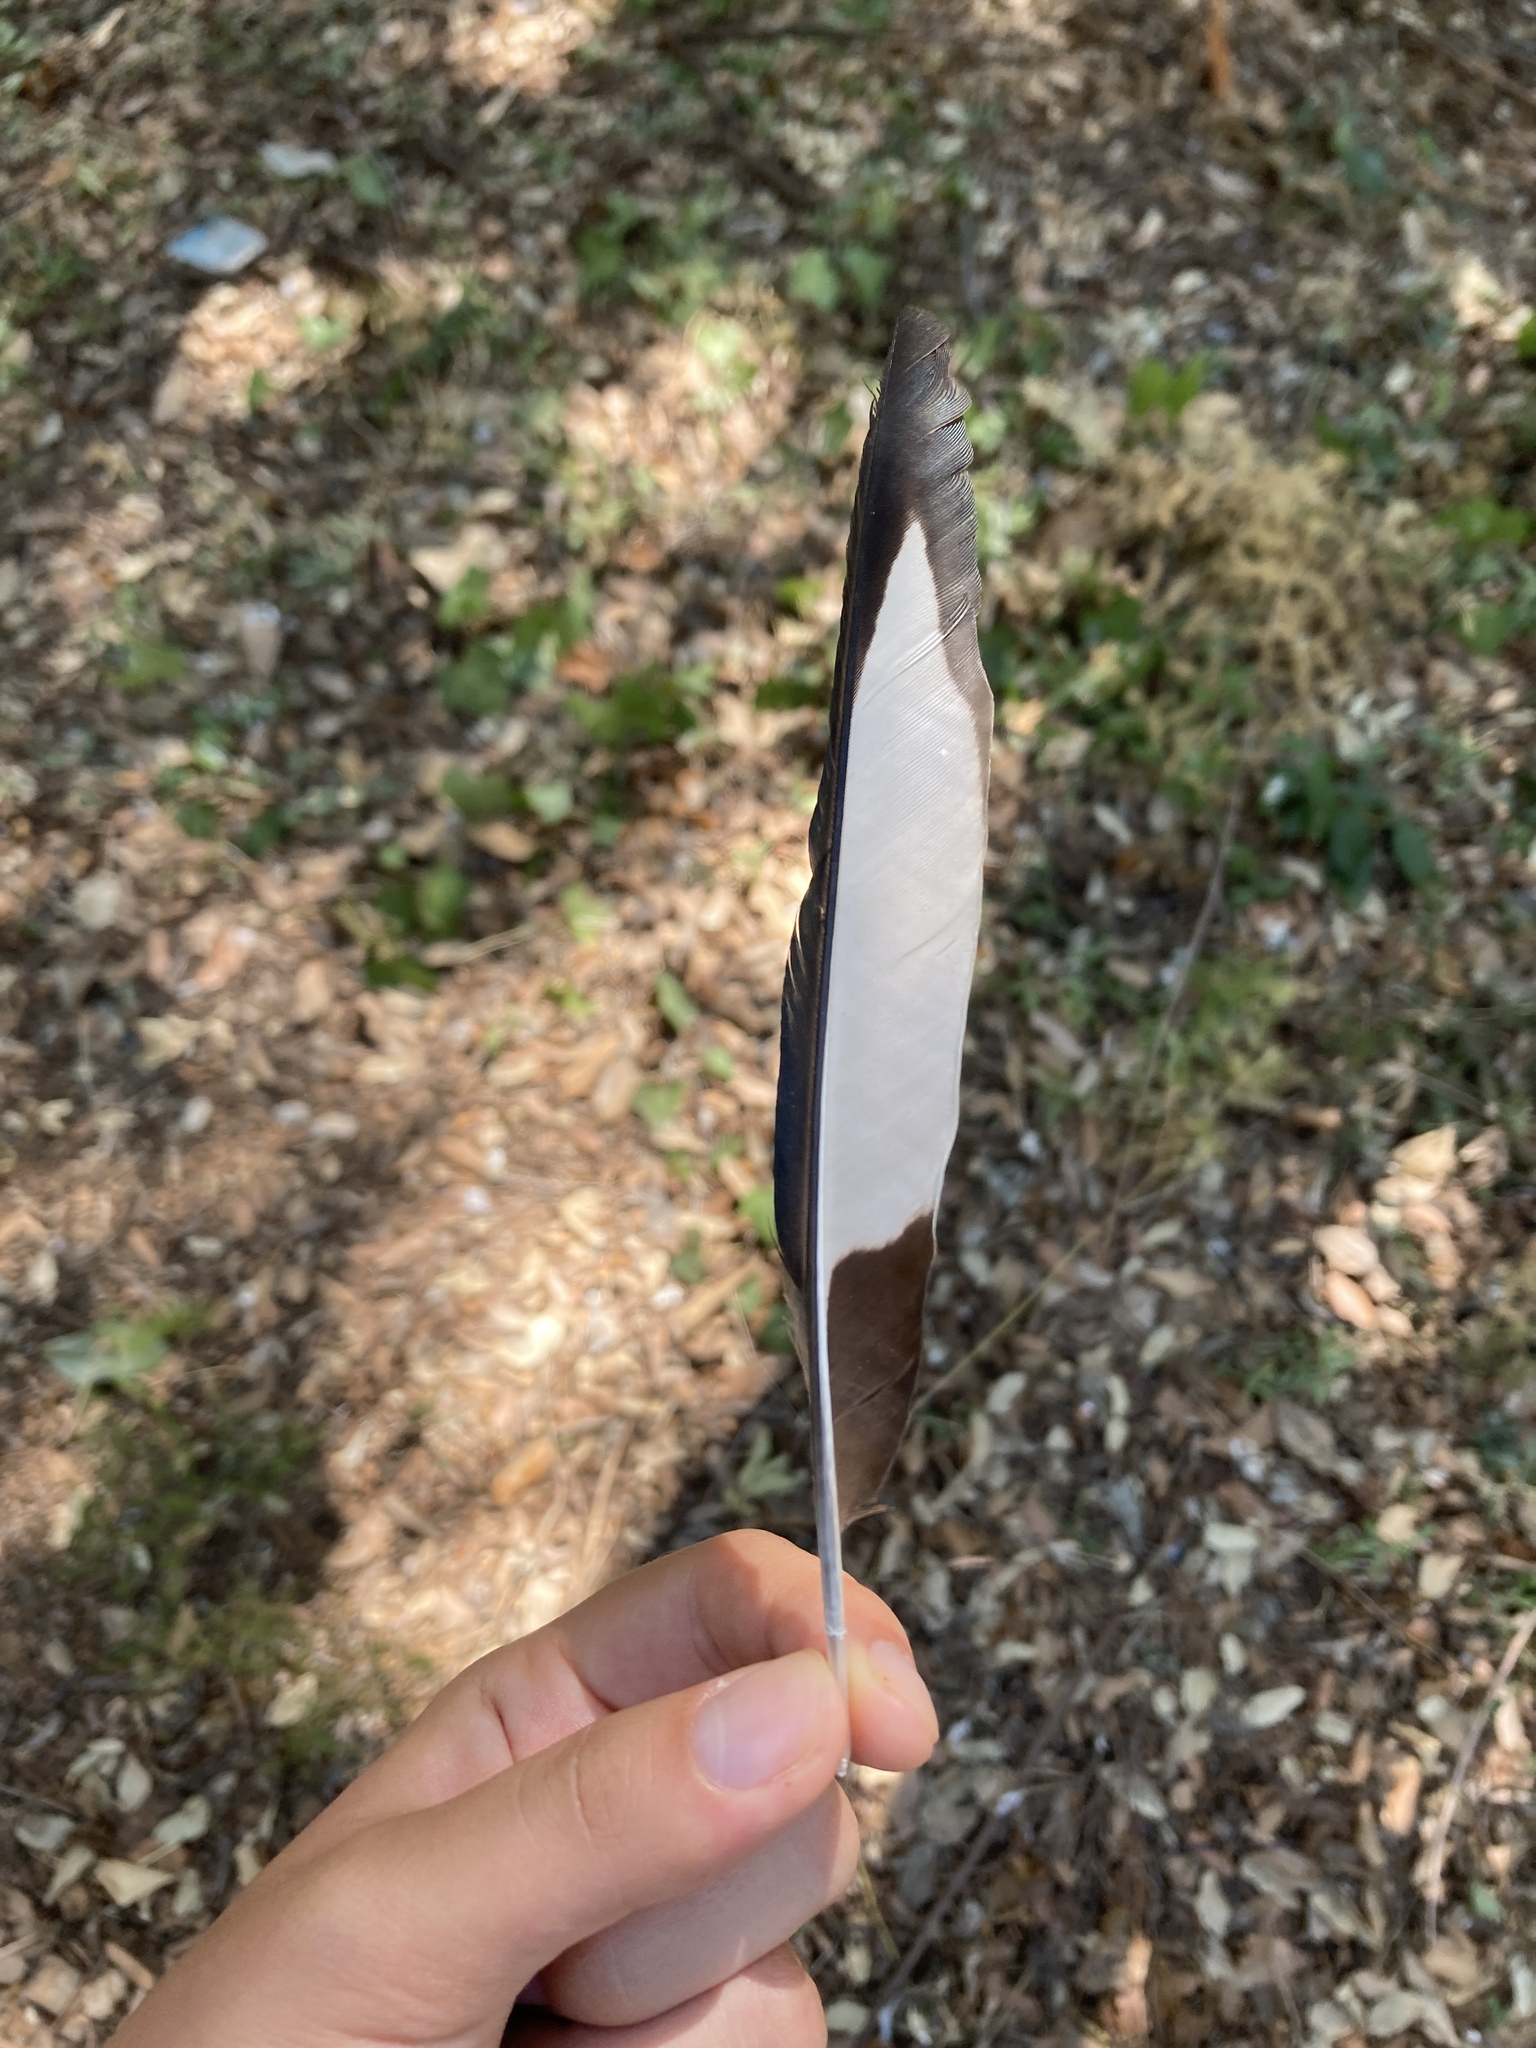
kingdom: Animalia
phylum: Chordata
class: Aves
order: Passeriformes
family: Corvidae
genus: Pica
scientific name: Pica pica
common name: Eurasian magpie
